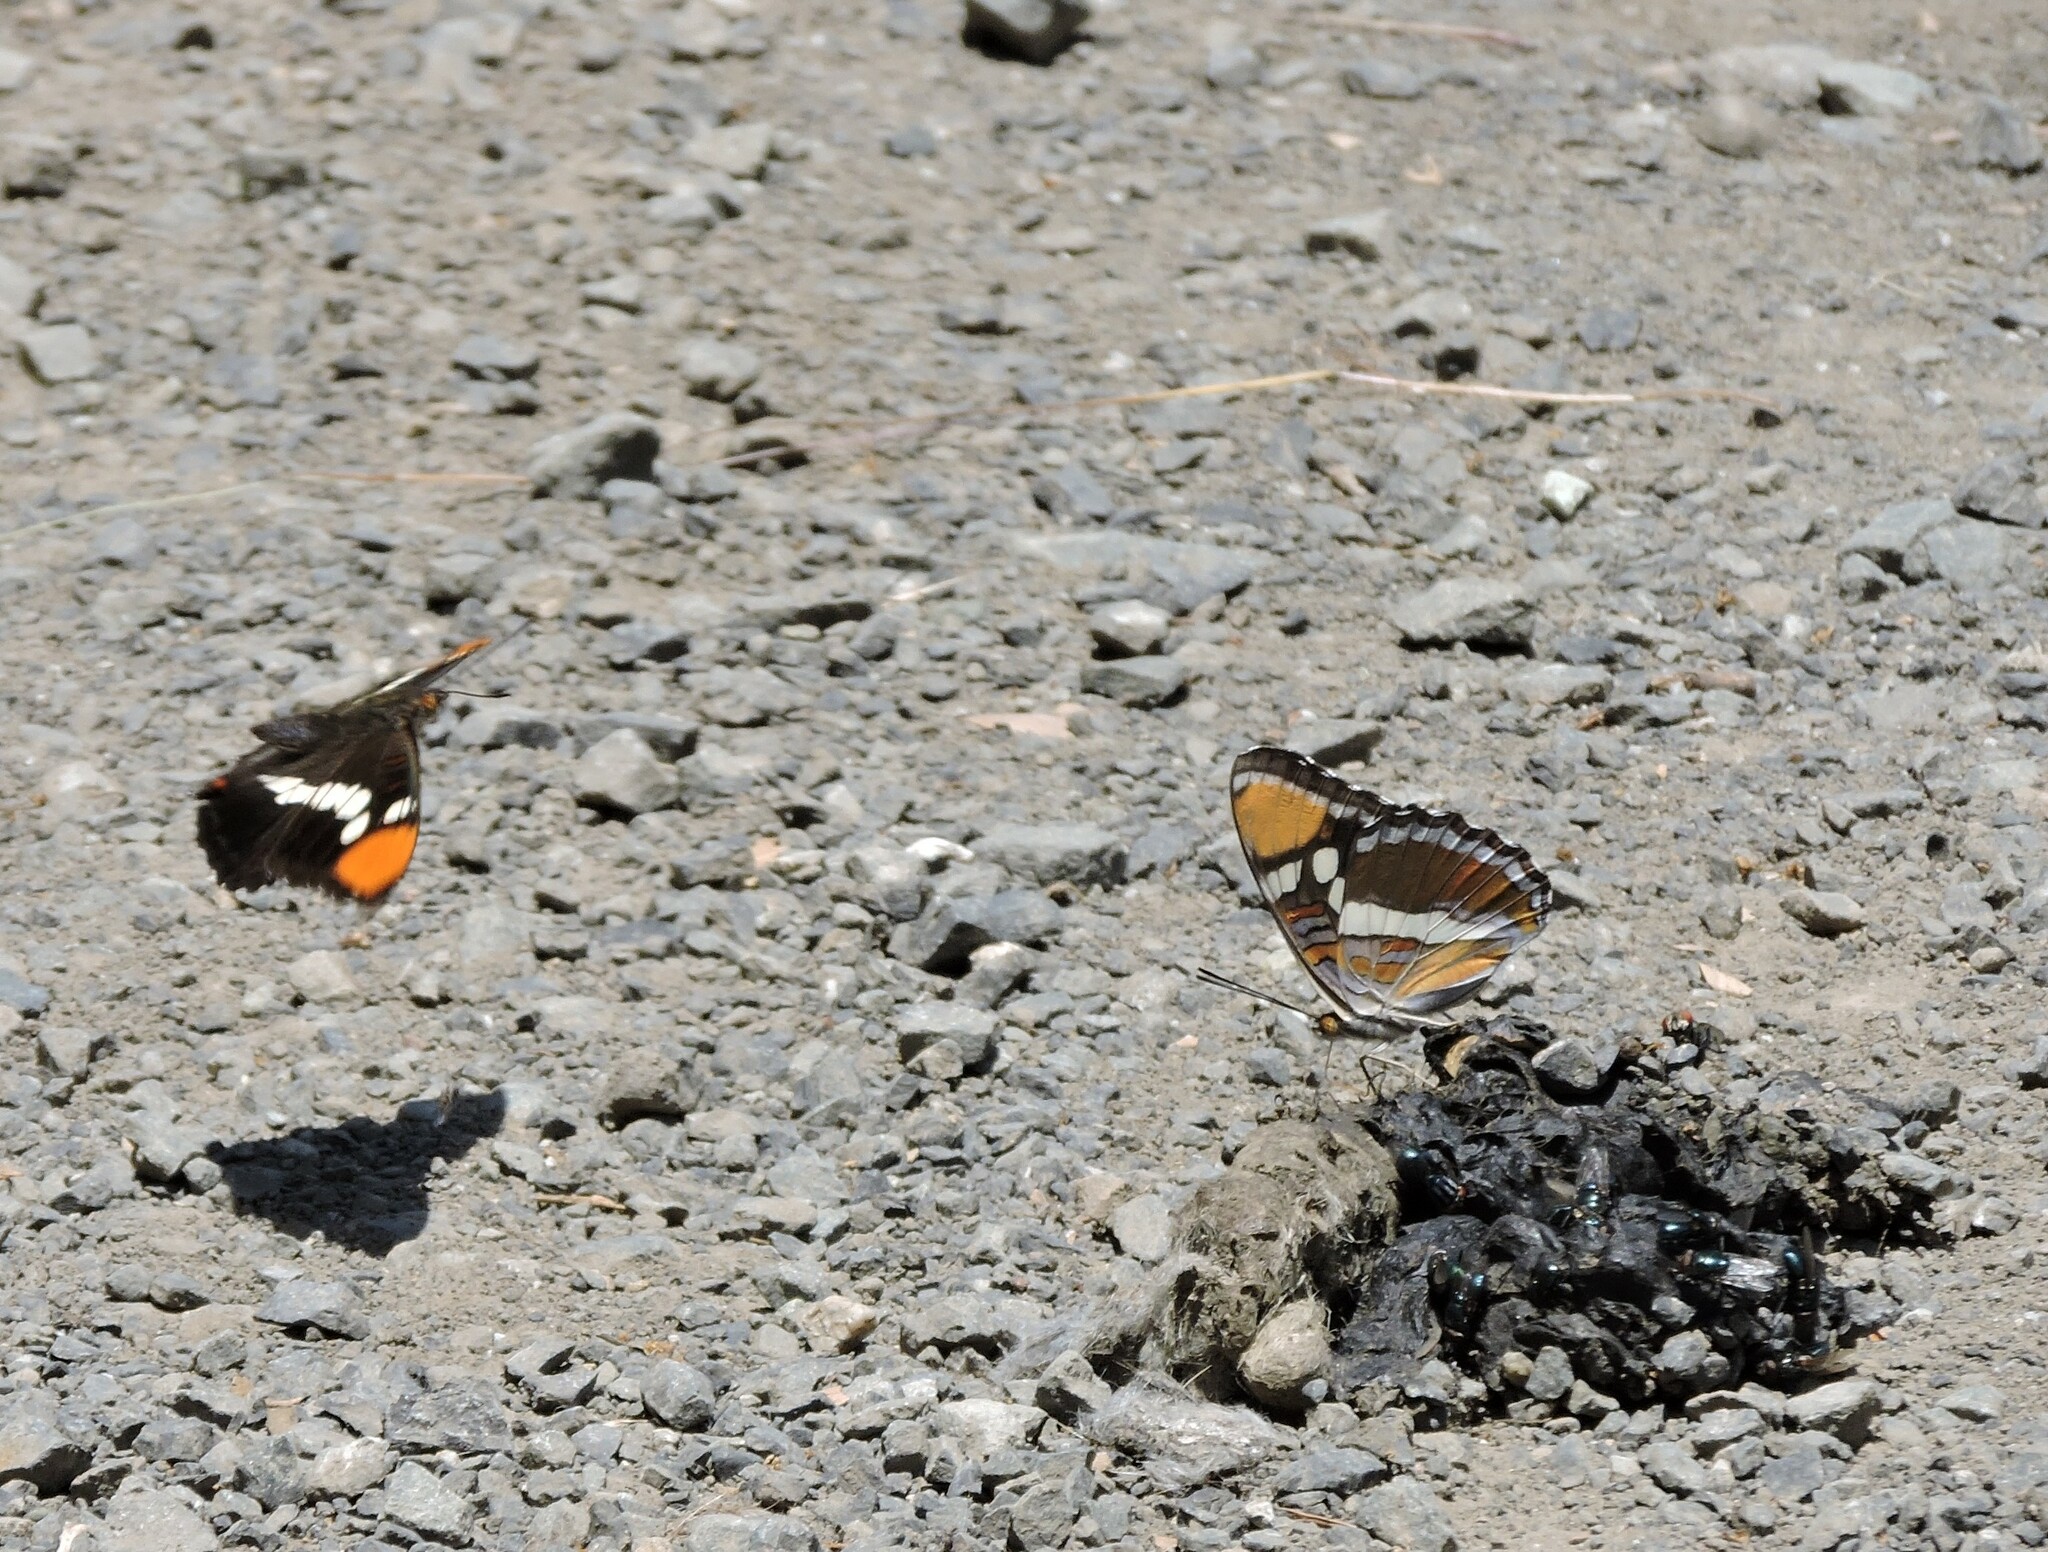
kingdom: Animalia
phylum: Arthropoda
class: Insecta
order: Lepidoptera
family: Nymphalidae
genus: Limenitis
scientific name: Limenitis bredowii
